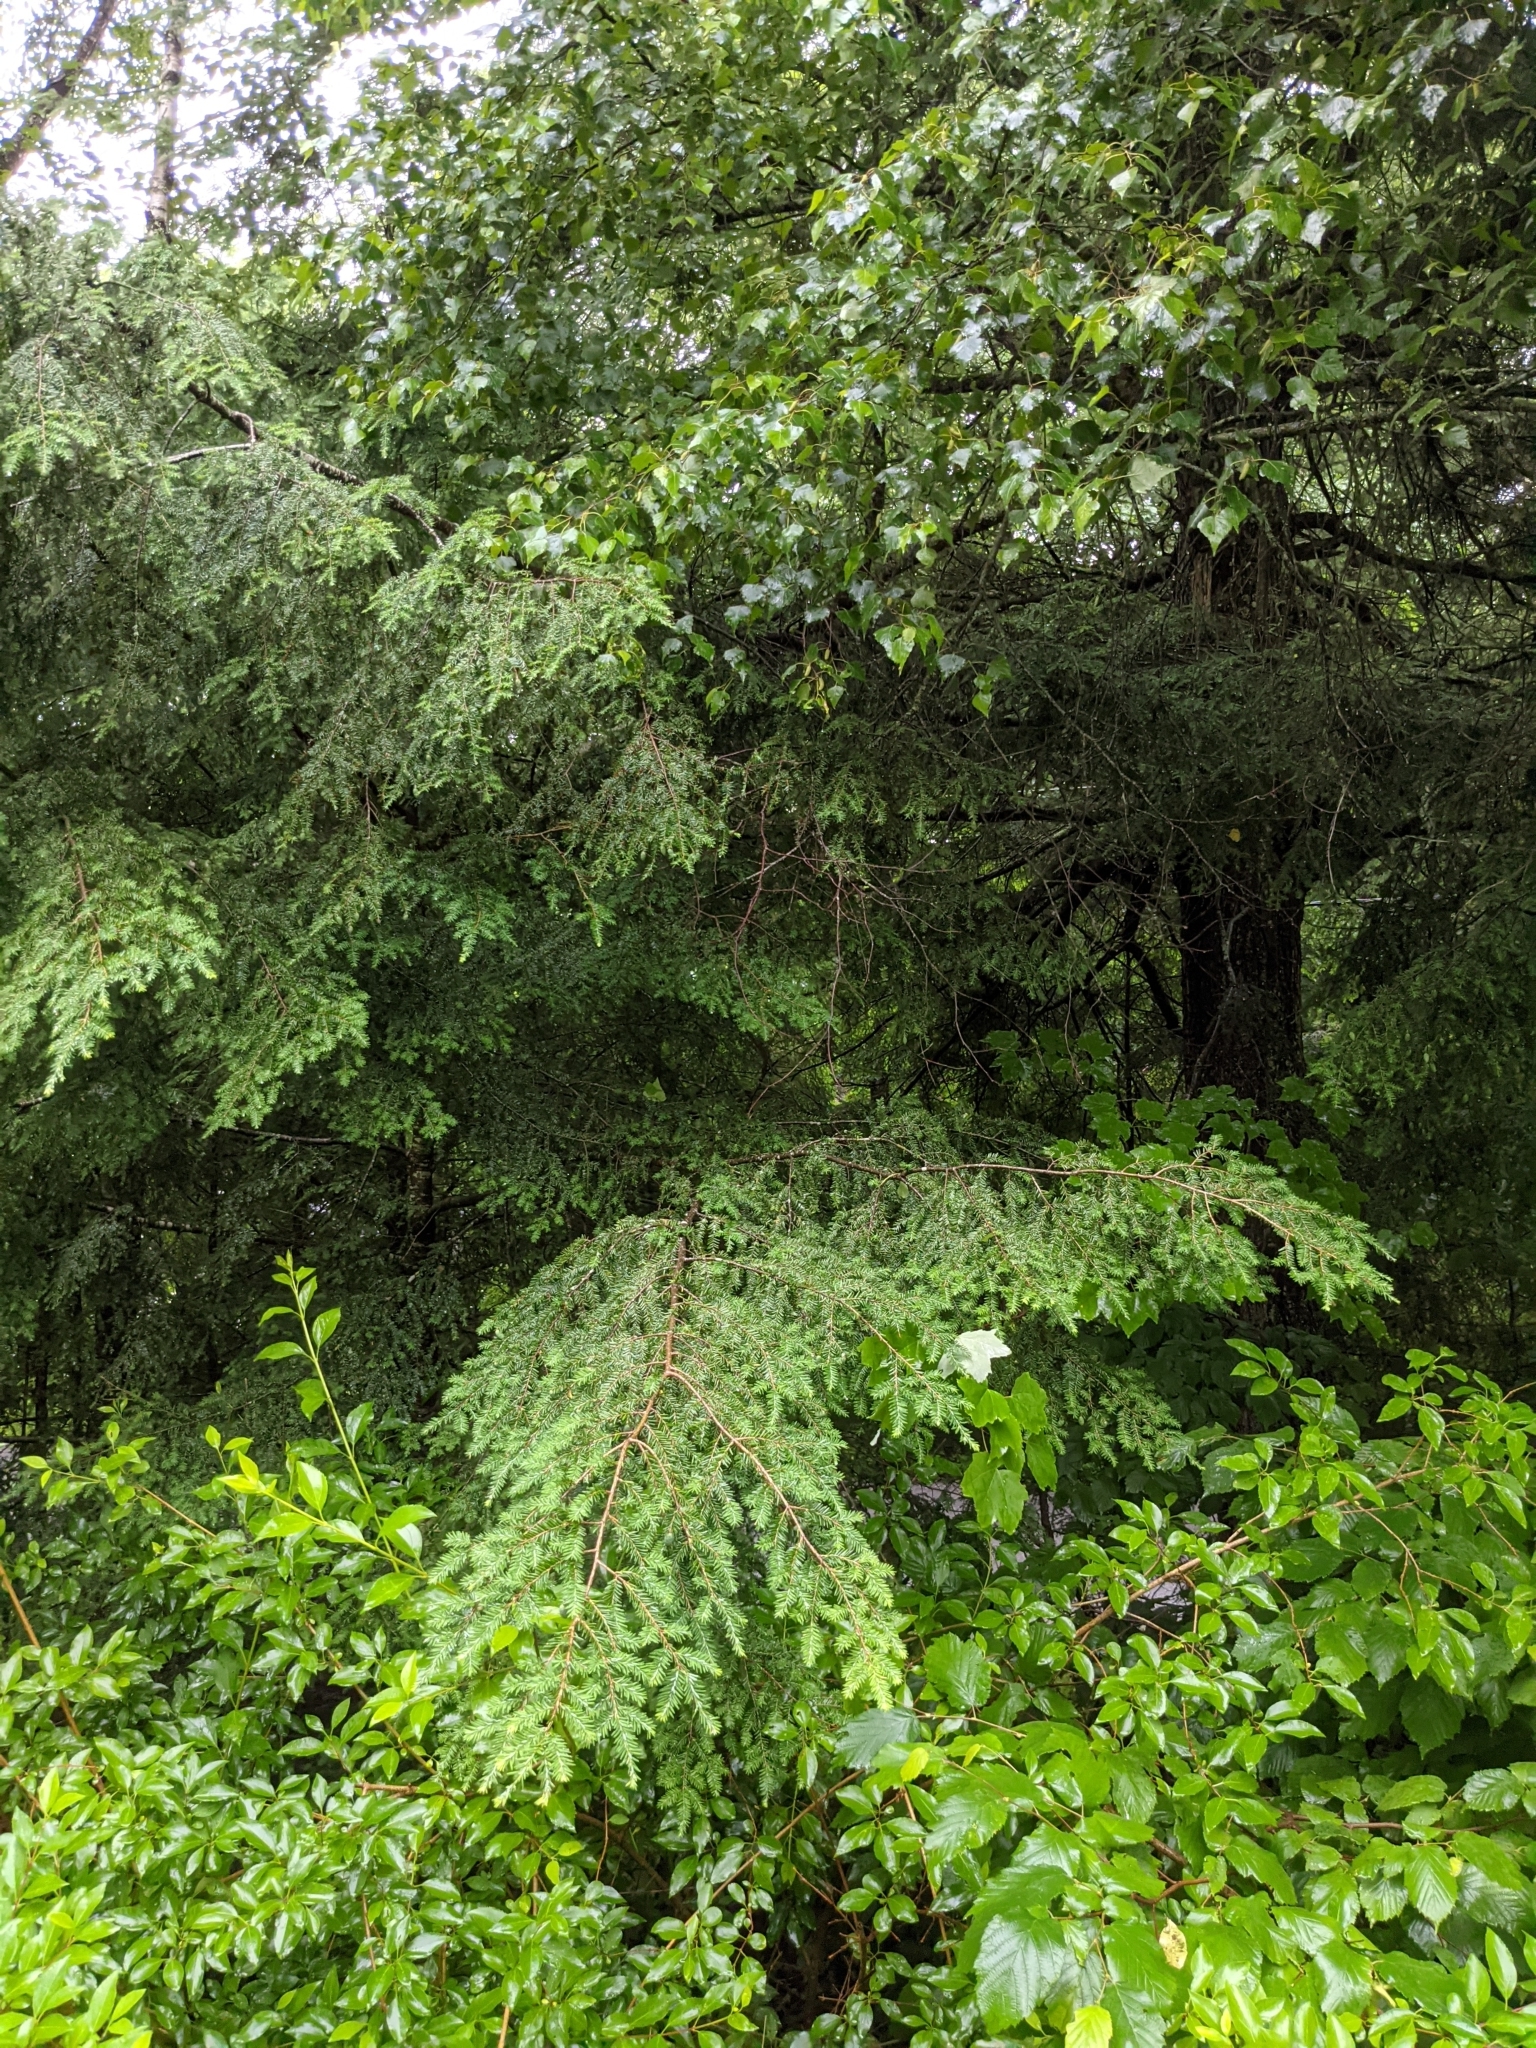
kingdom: Plantae
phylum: Tracheophyta
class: Pinopsida
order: Pinales
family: Pinaceae
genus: Tsuga
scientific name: Tsuga canadensis
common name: Eastern hemlock
